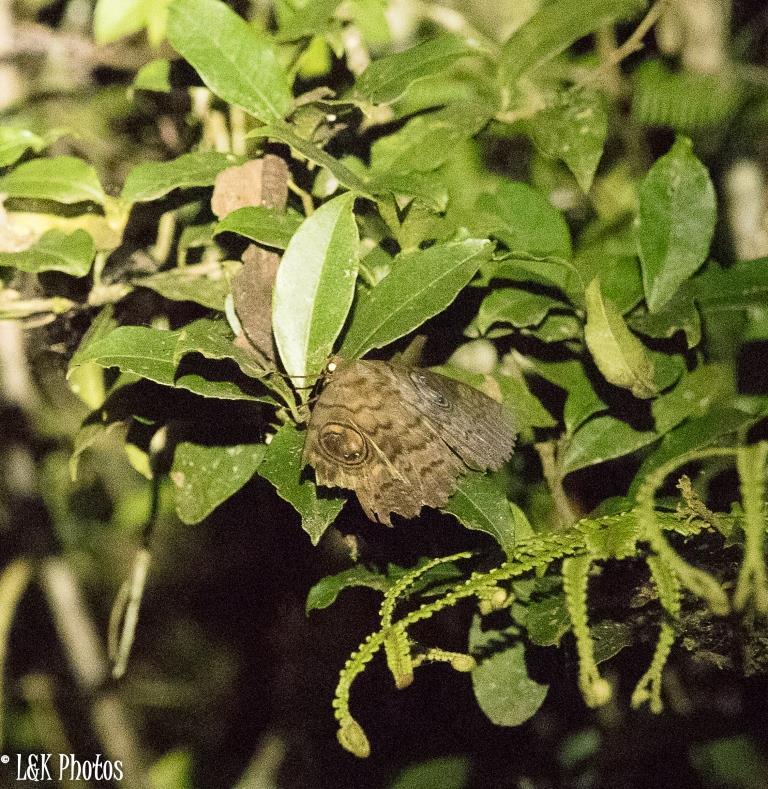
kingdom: Animalia
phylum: Arthropoda
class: Insecta
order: Lepidoptera
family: Erebidae
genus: Erebus
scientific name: Erebus walkeri
